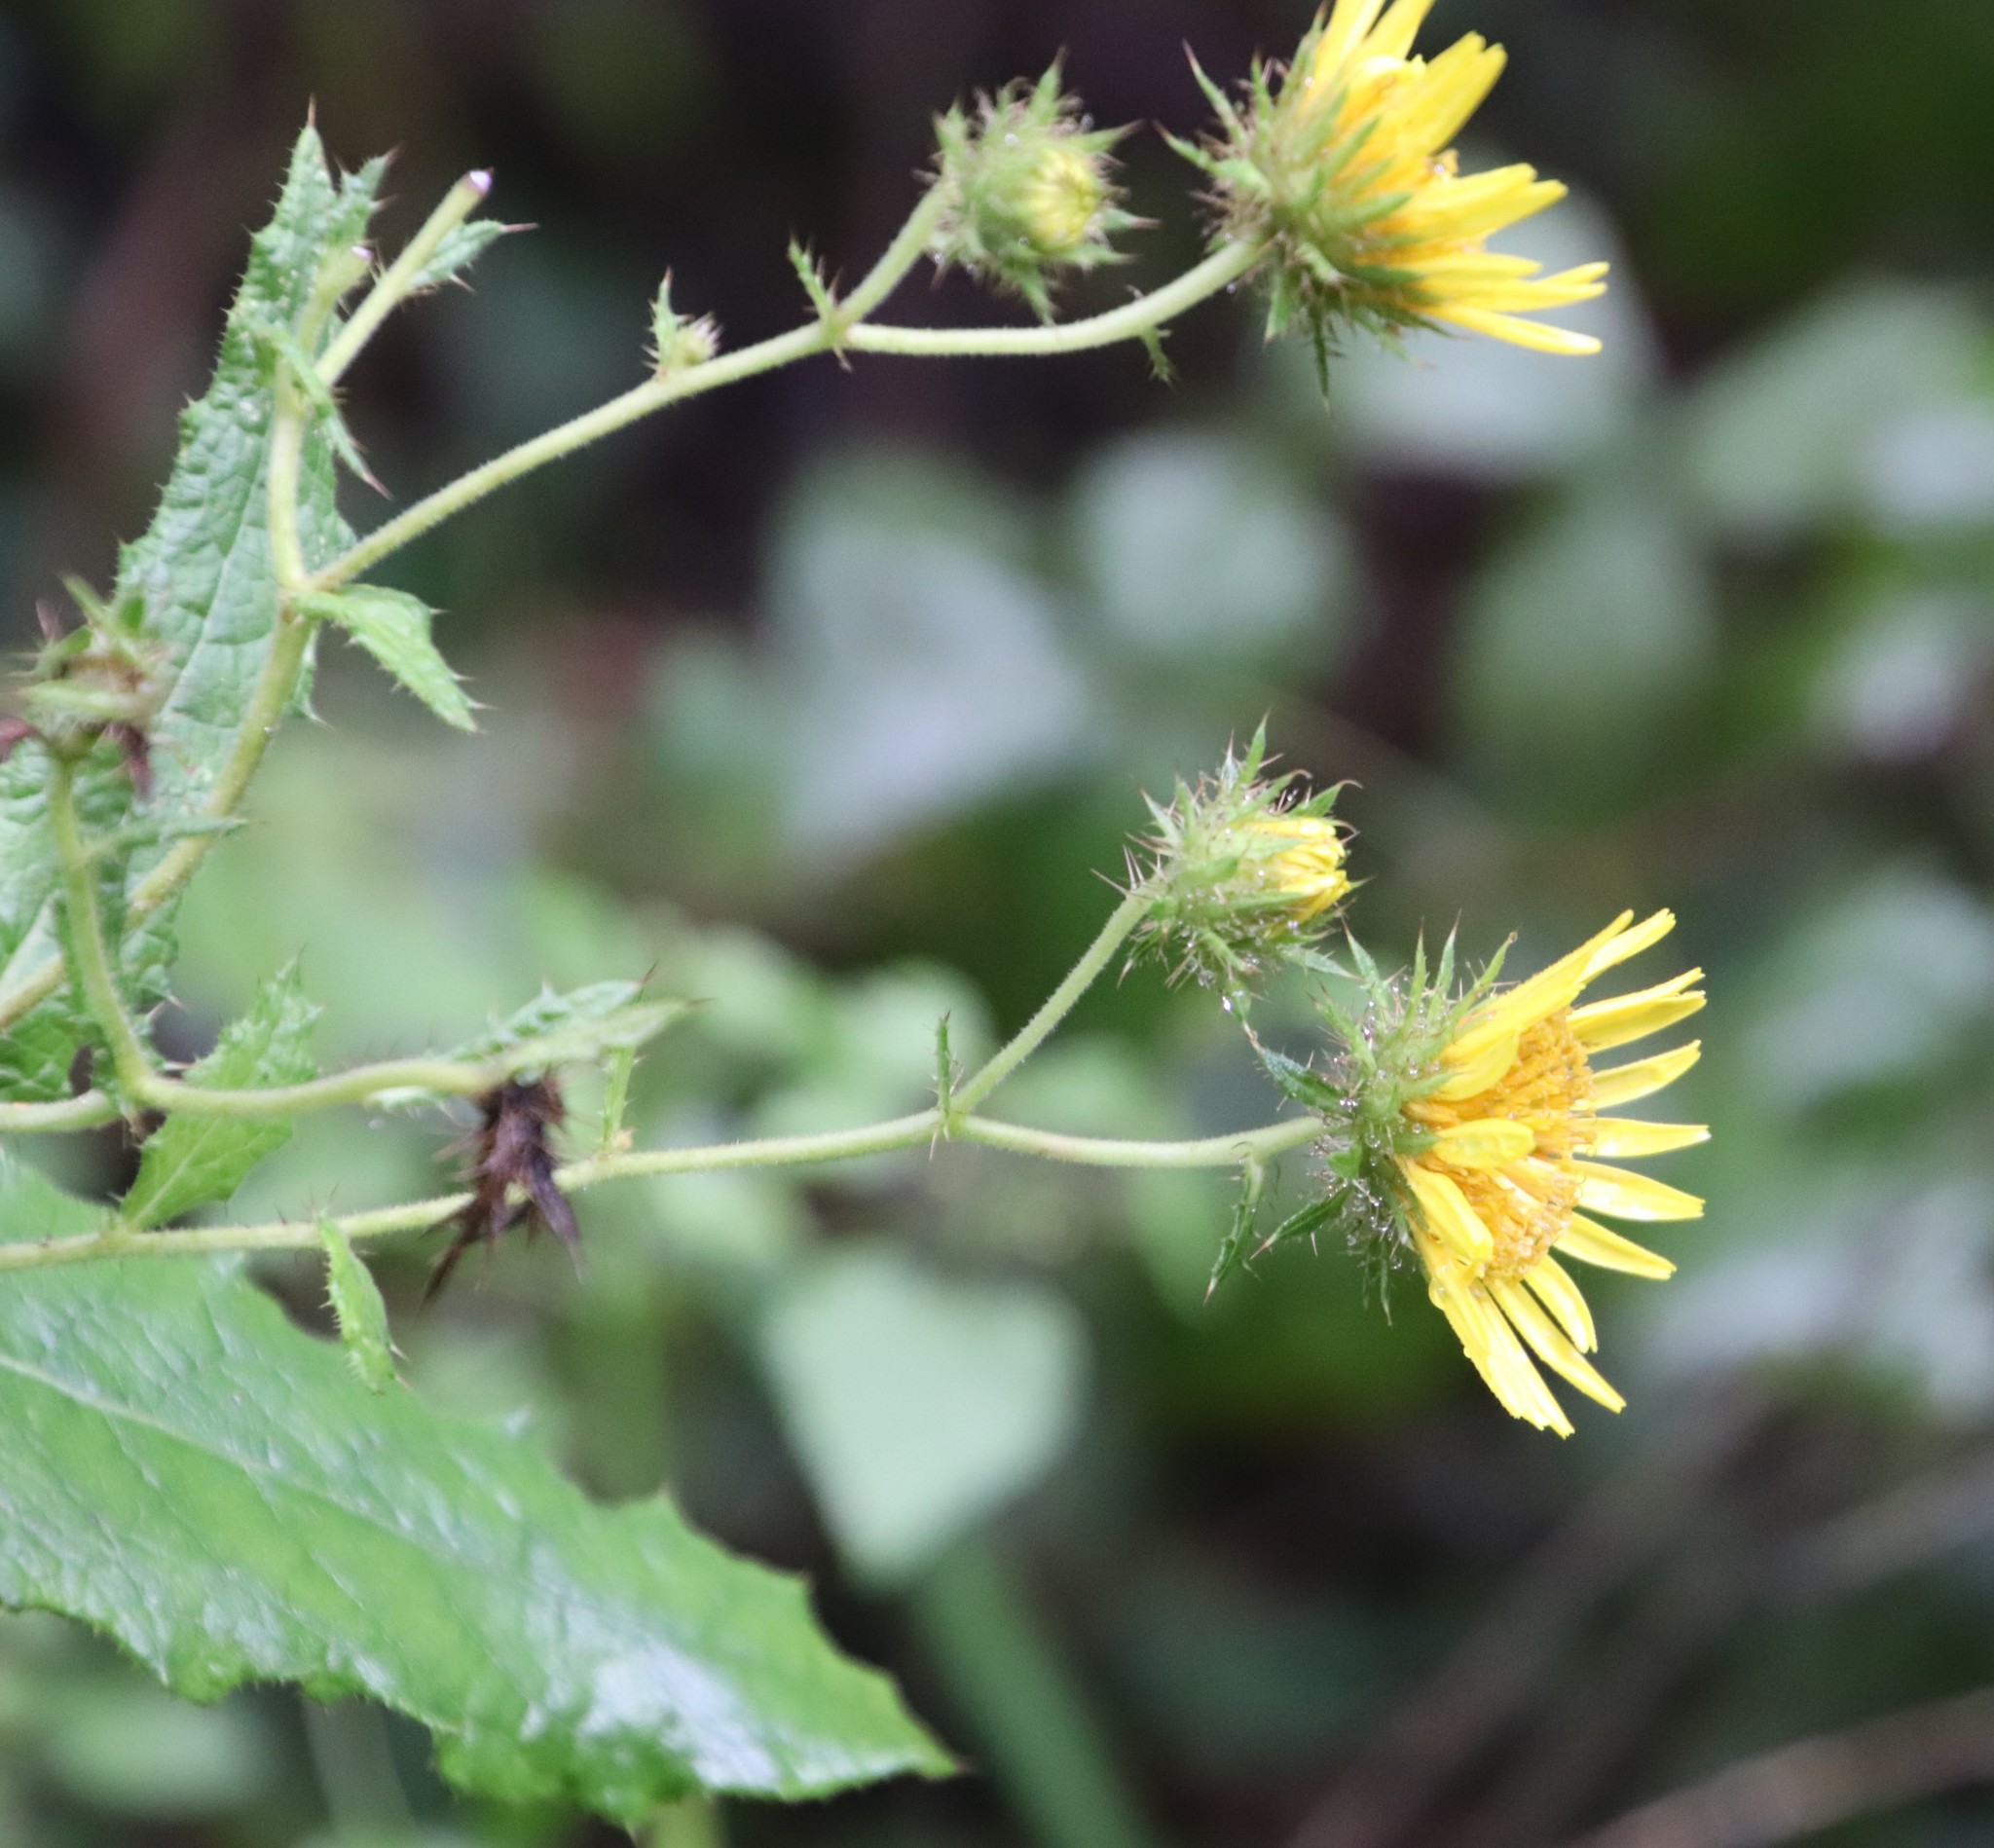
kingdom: Plantae
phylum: Tracheophyta
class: Magnoliopsida
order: Asterales
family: Asteraceae
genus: Berkheya
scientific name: Berkheya montana
